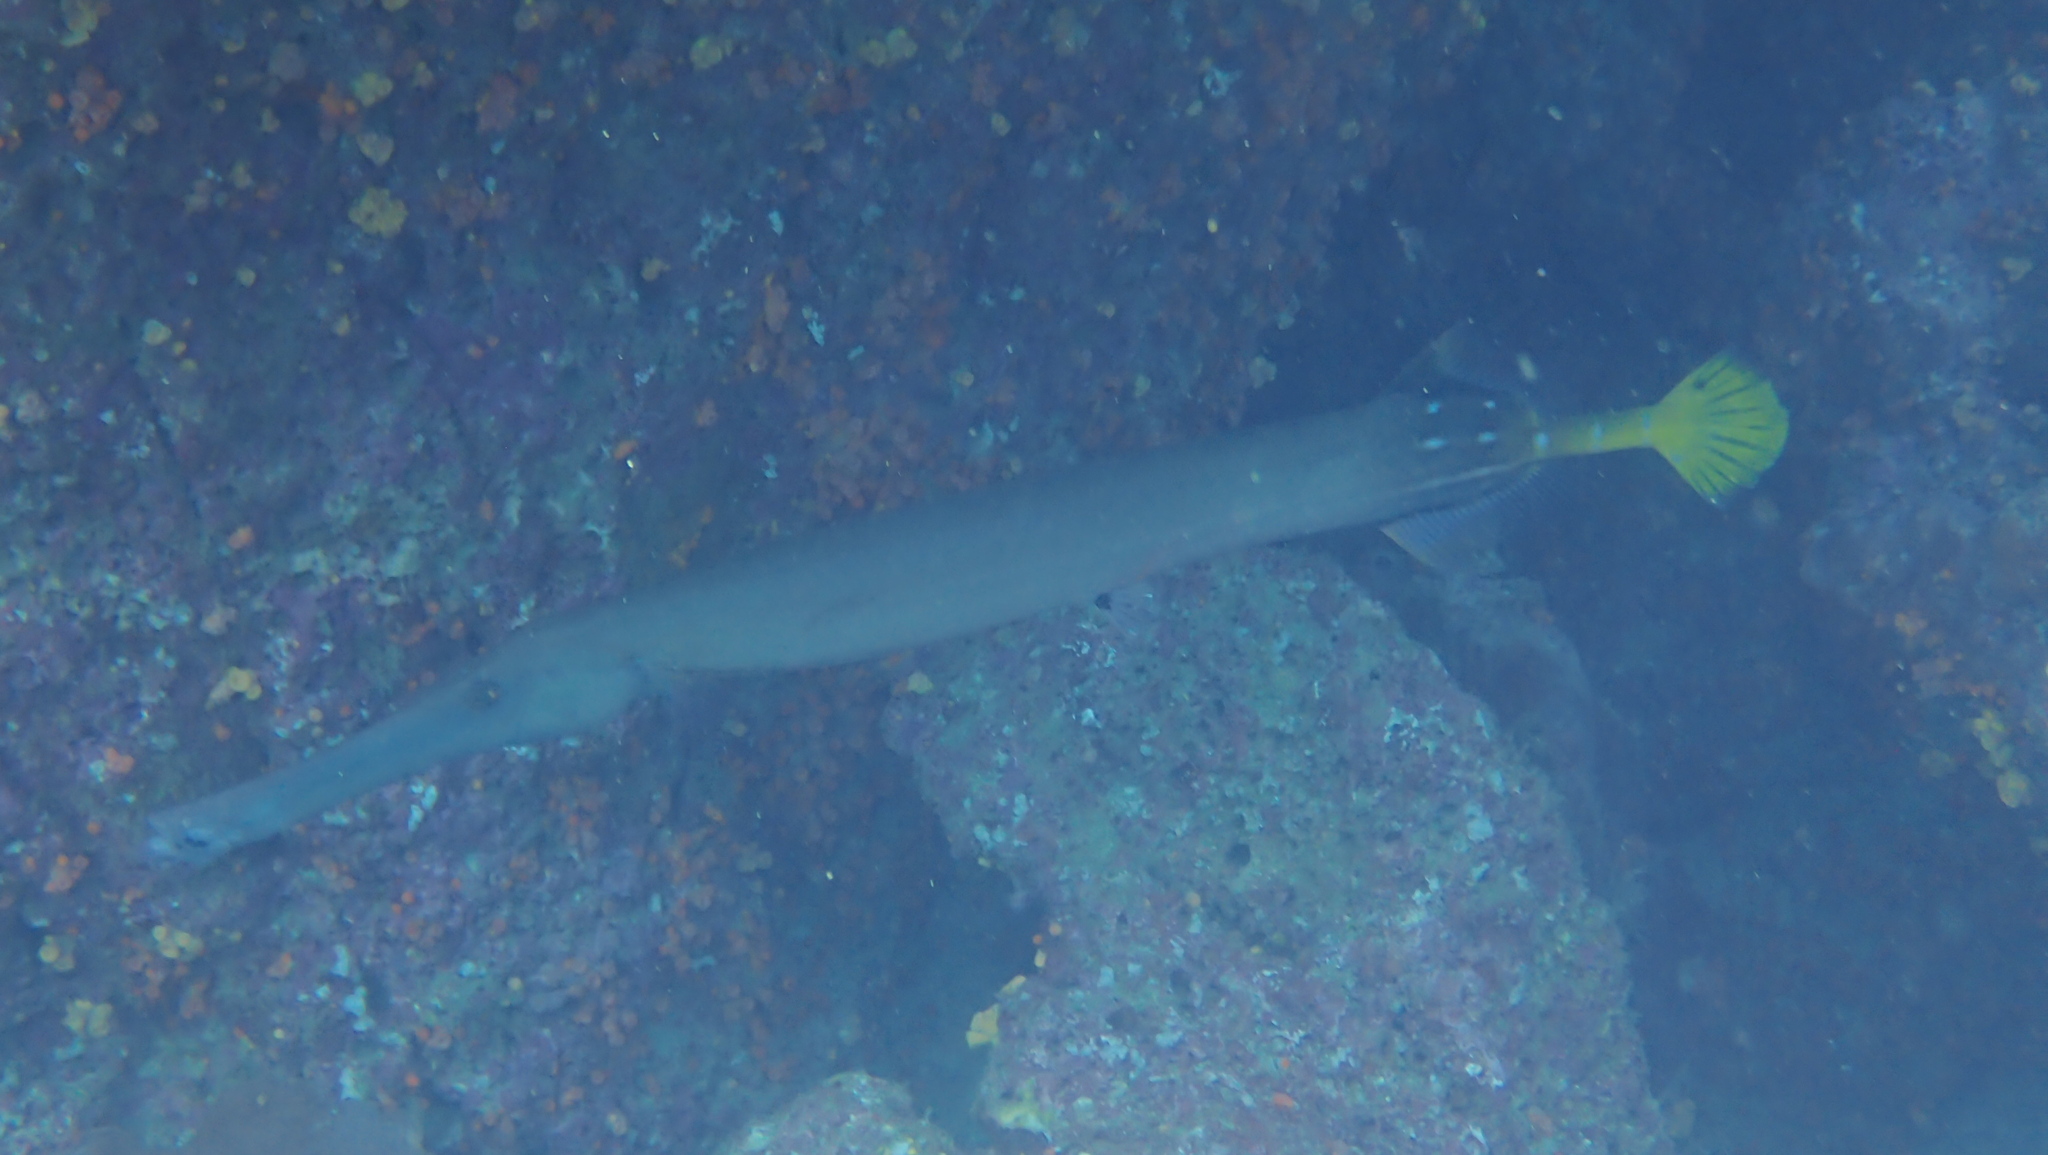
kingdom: Animalia
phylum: Chordata
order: Syngnathiformes
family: Aulostomidae
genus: Aulostomus
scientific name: Aulostomus chinensis
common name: Chinese trumpetfish
